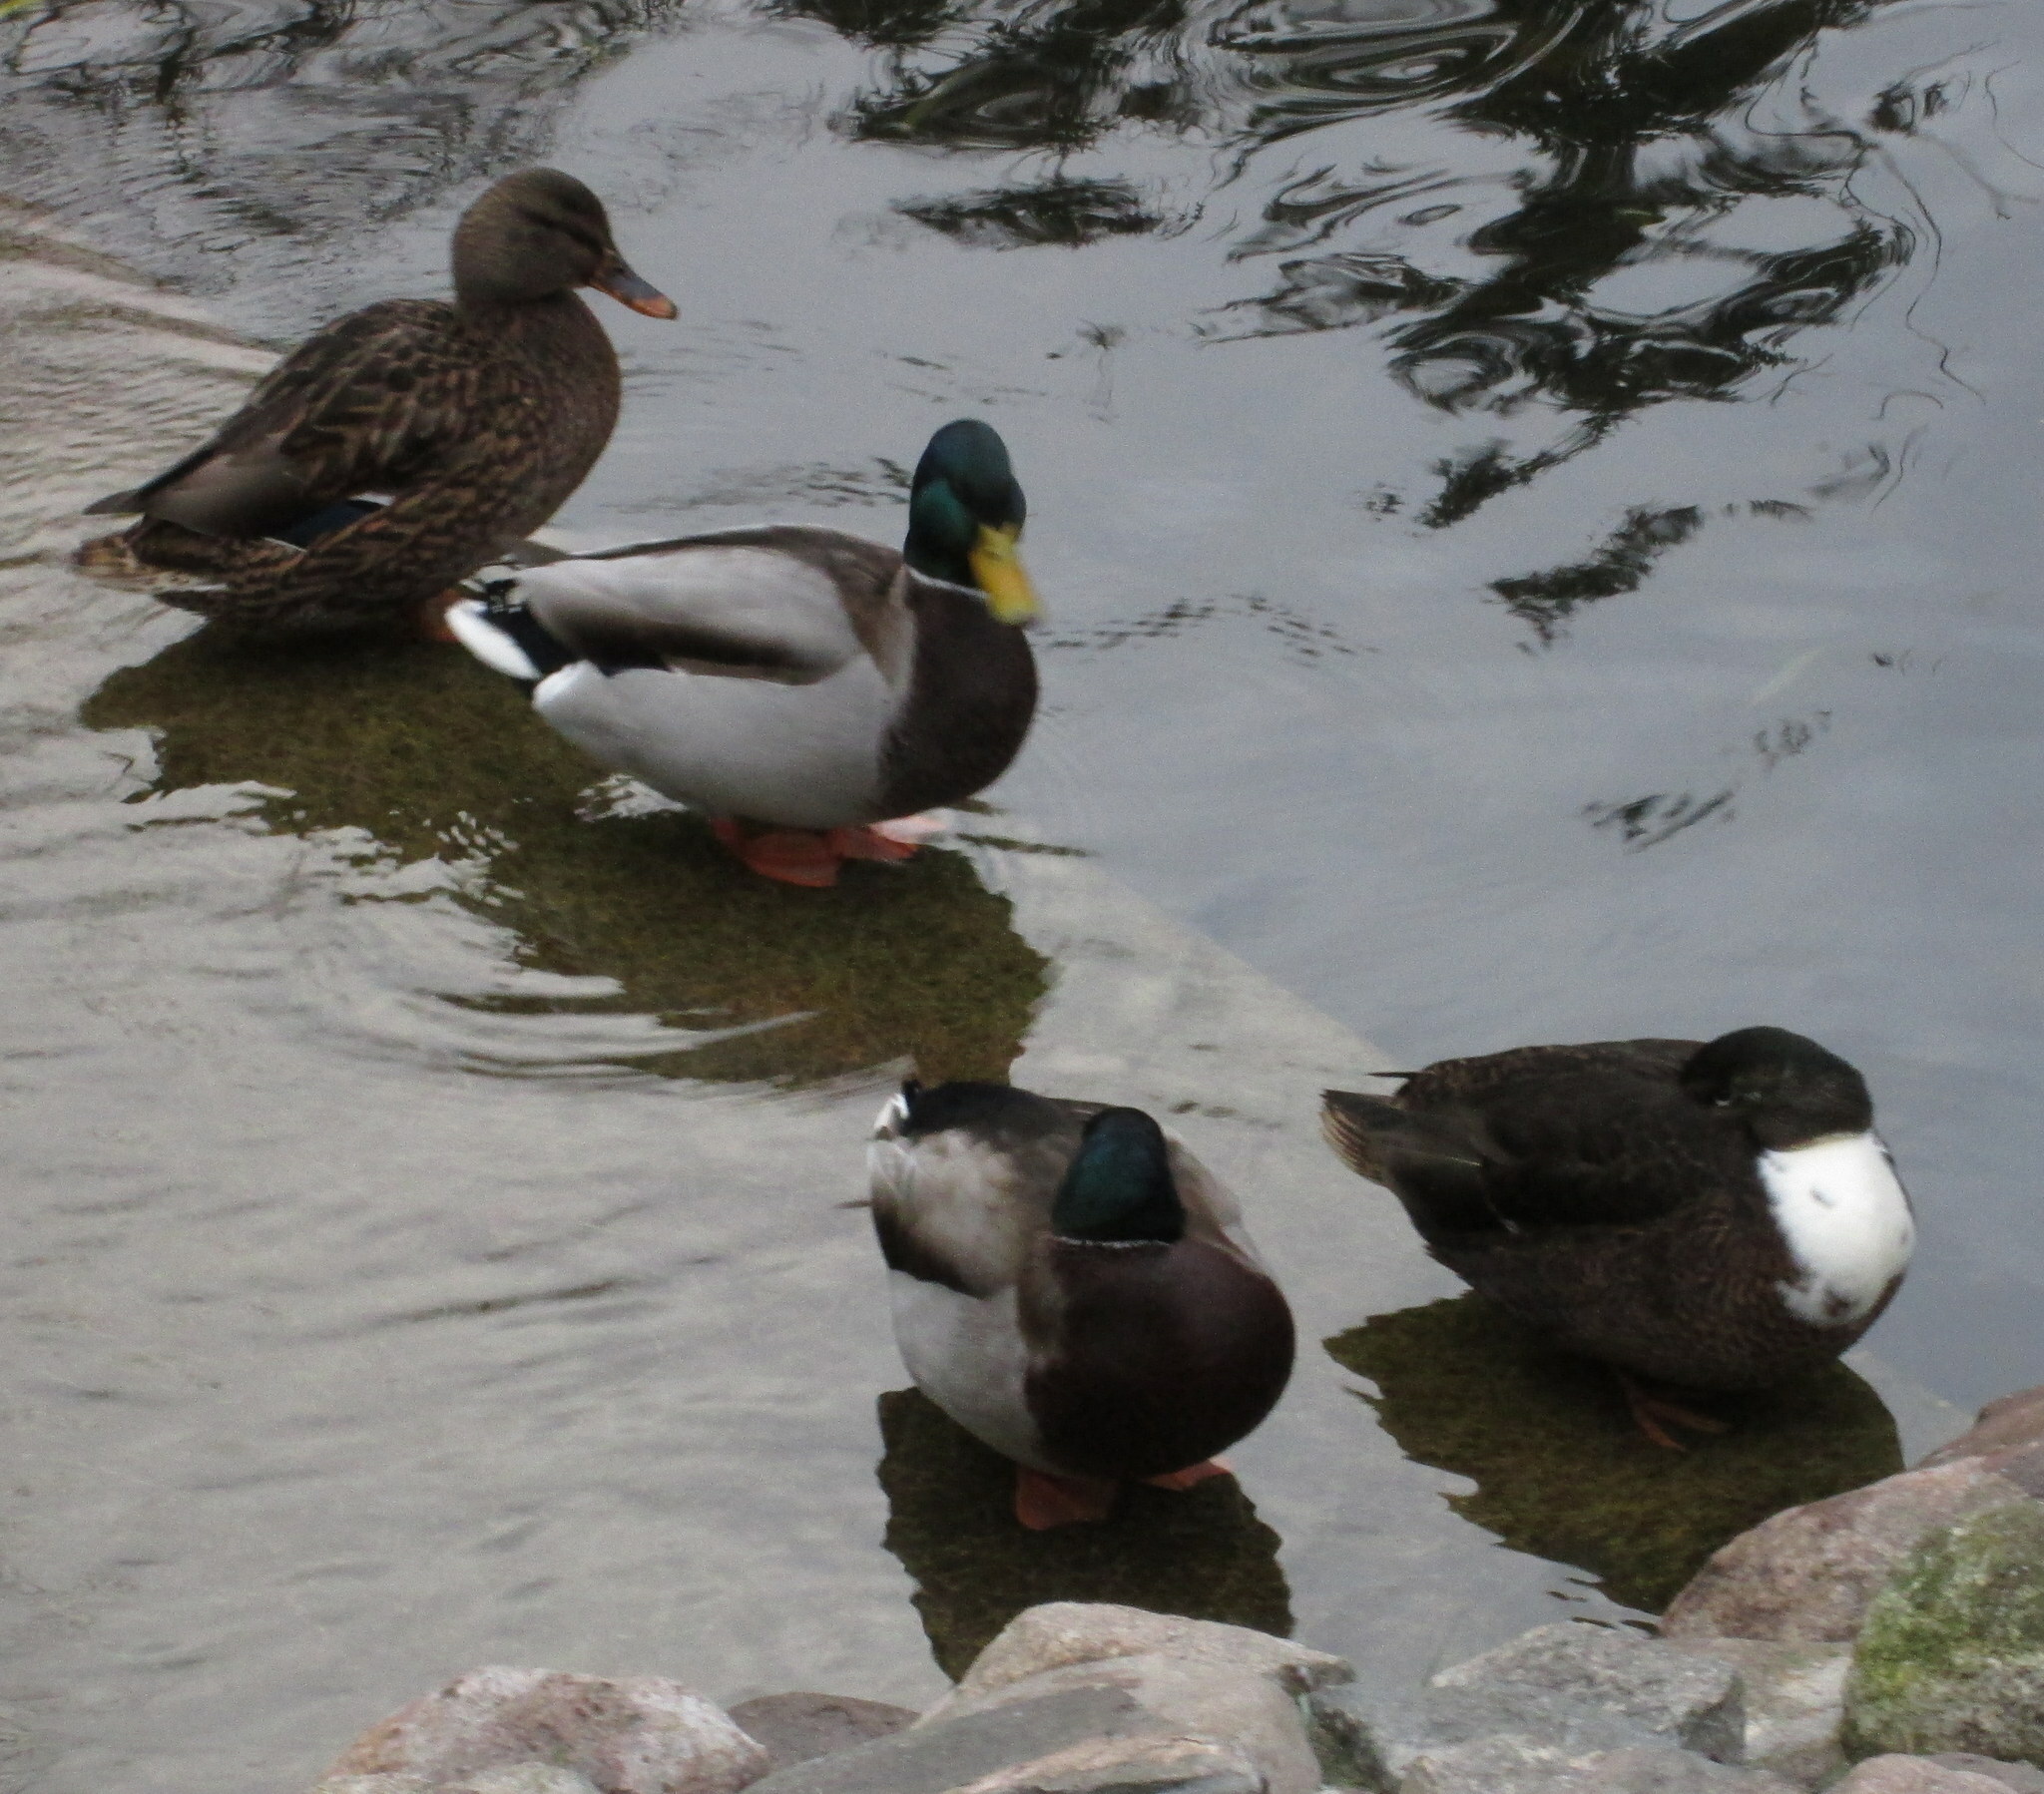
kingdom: Animalia
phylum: Chordata
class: Aves
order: Anseriformes
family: Anatidae
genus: Anas
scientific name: Anas platyrhynchos
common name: Mallard
